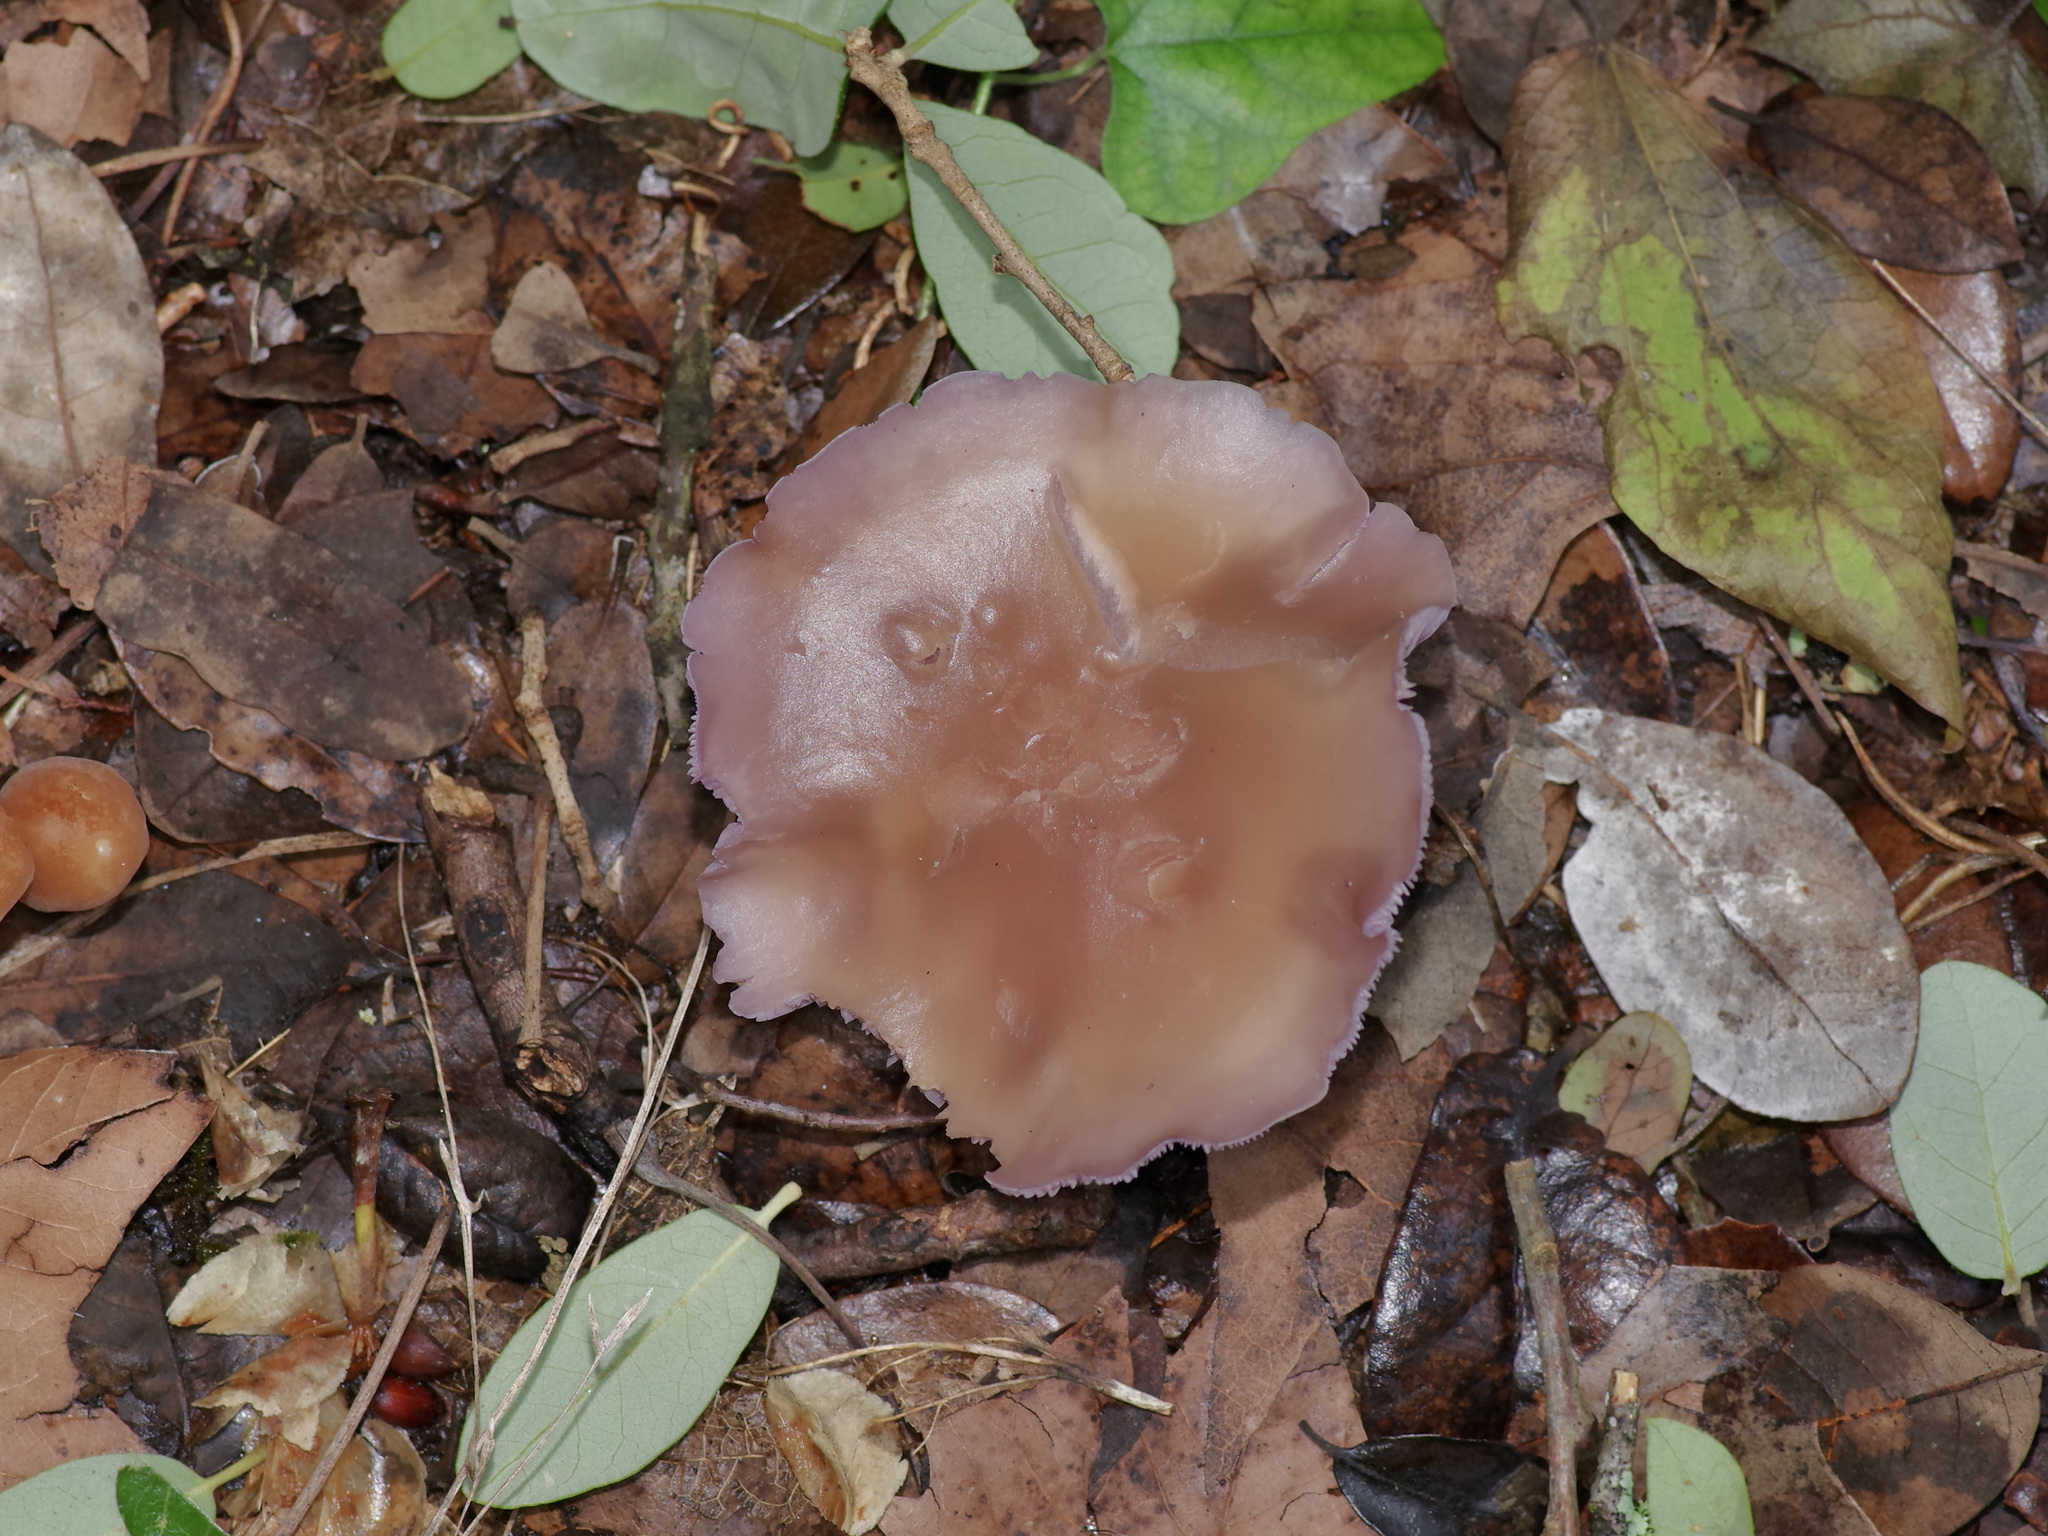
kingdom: Fungi
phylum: Basidiomycota
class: Agaricomycetes
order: Agaricales
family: Tricholomataceae
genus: Collybia
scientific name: Collybia
